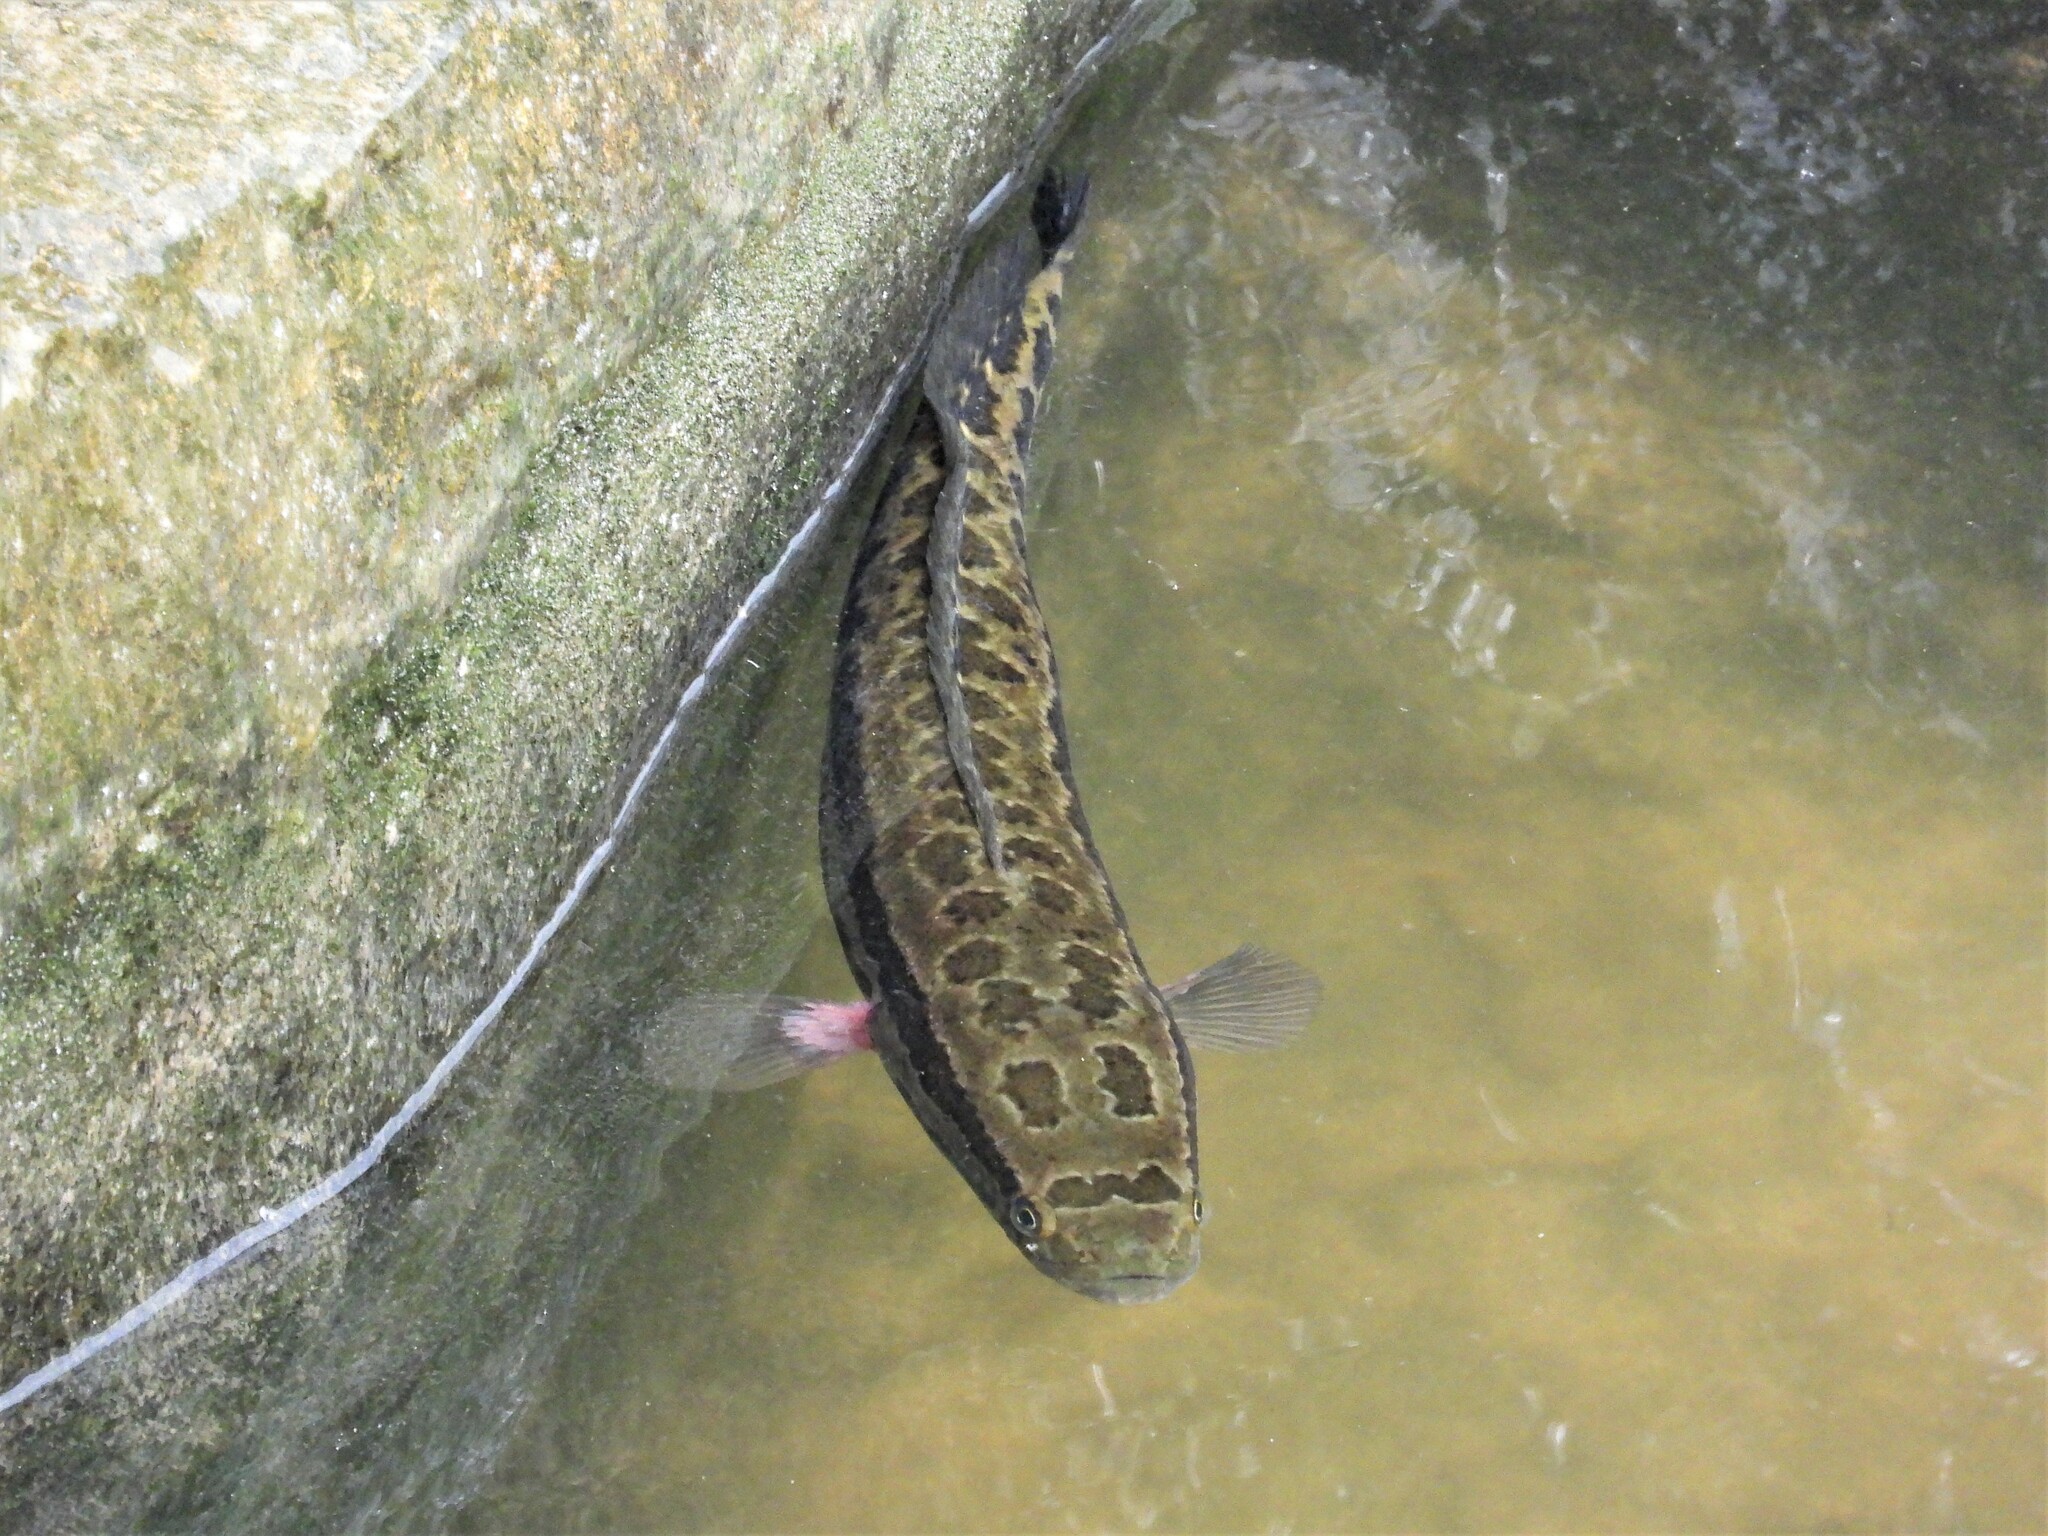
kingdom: Animalia
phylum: Chordata
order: Perciformes
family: Channidae
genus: Channa
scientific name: Channa maculata
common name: Blotched snakehead
